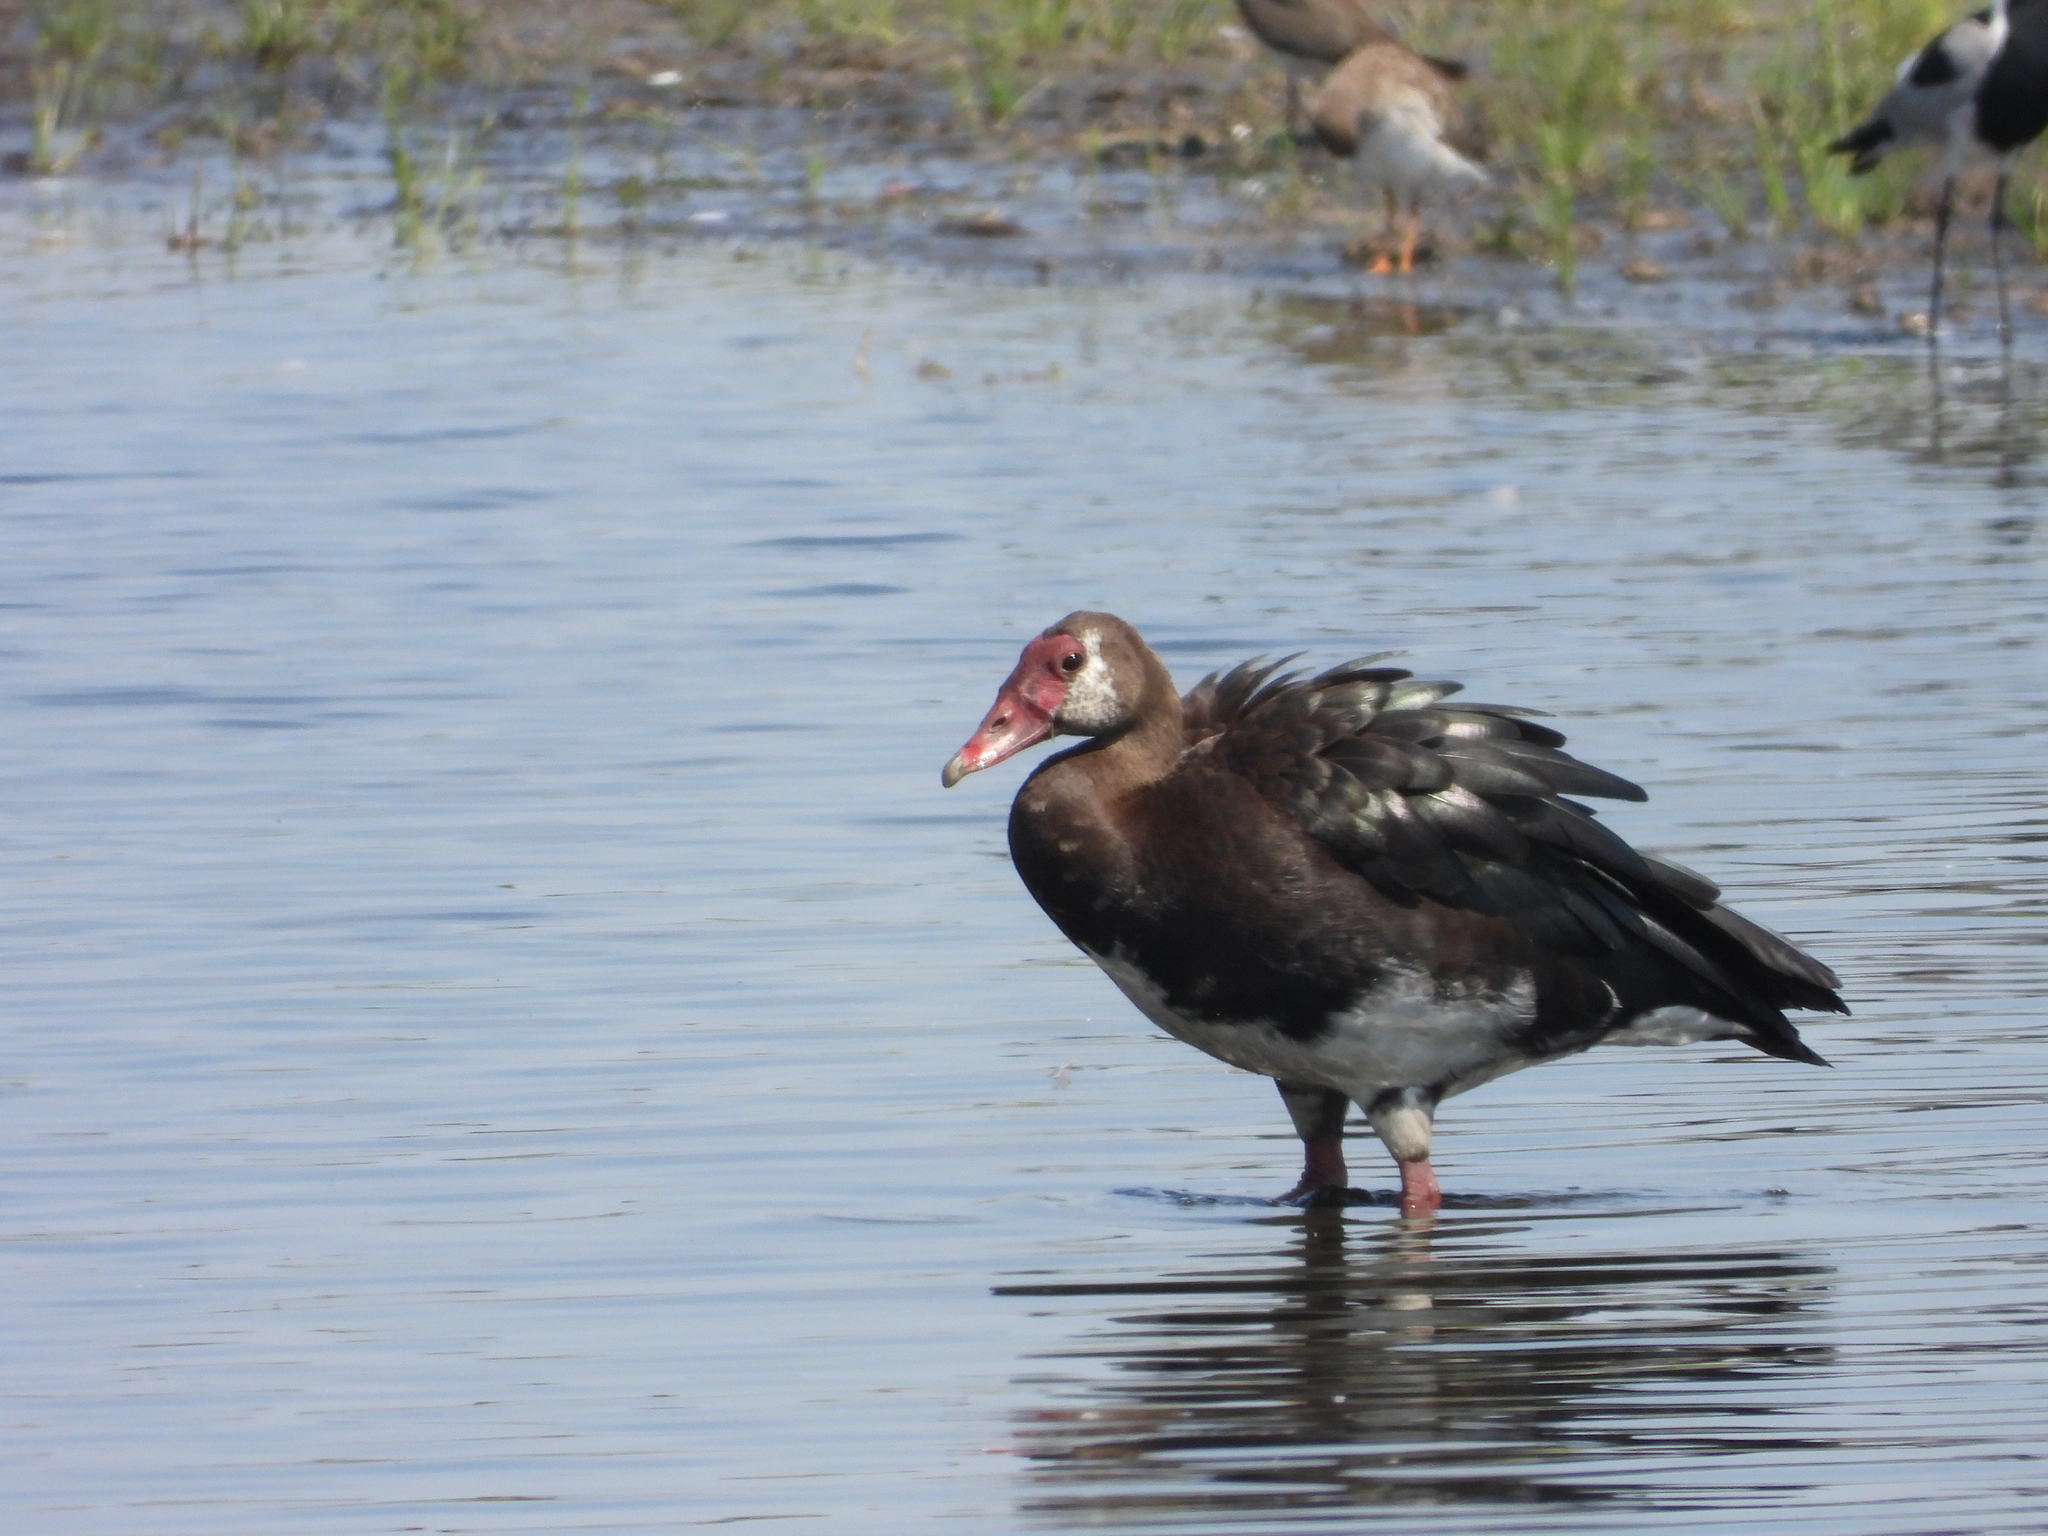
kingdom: Animalia
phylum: Chordata
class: Aves
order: Anseriformes
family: Anatidae
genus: Plectropterus
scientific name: Plectropterus gambensis
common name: Spur-winged goose
